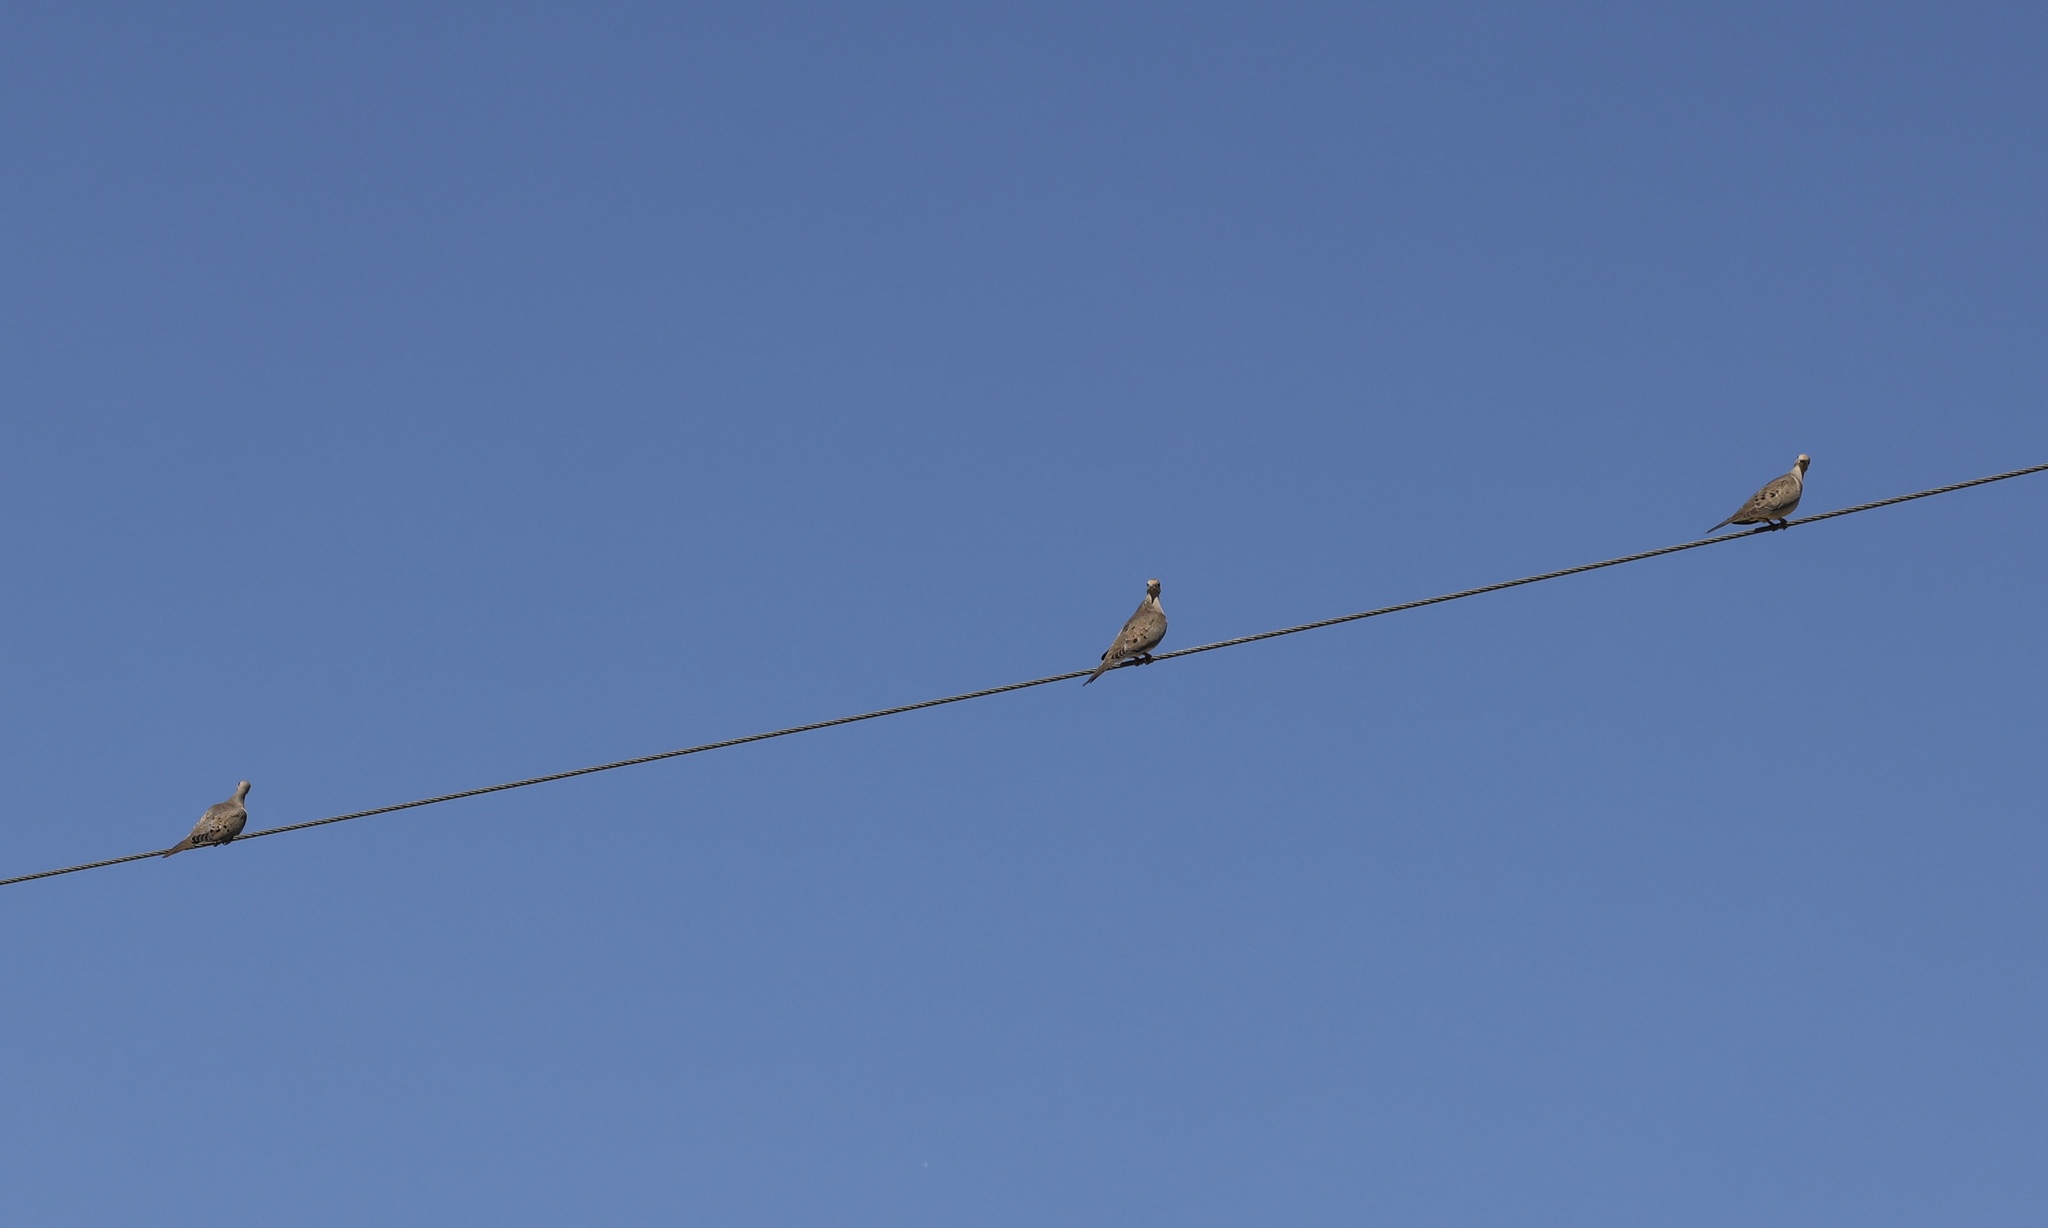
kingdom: Animalia
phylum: Chordata
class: Aves
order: Columbiformes
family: Columbidae
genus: Zenaida
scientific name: Zenaida macroura
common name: Mourning dove
